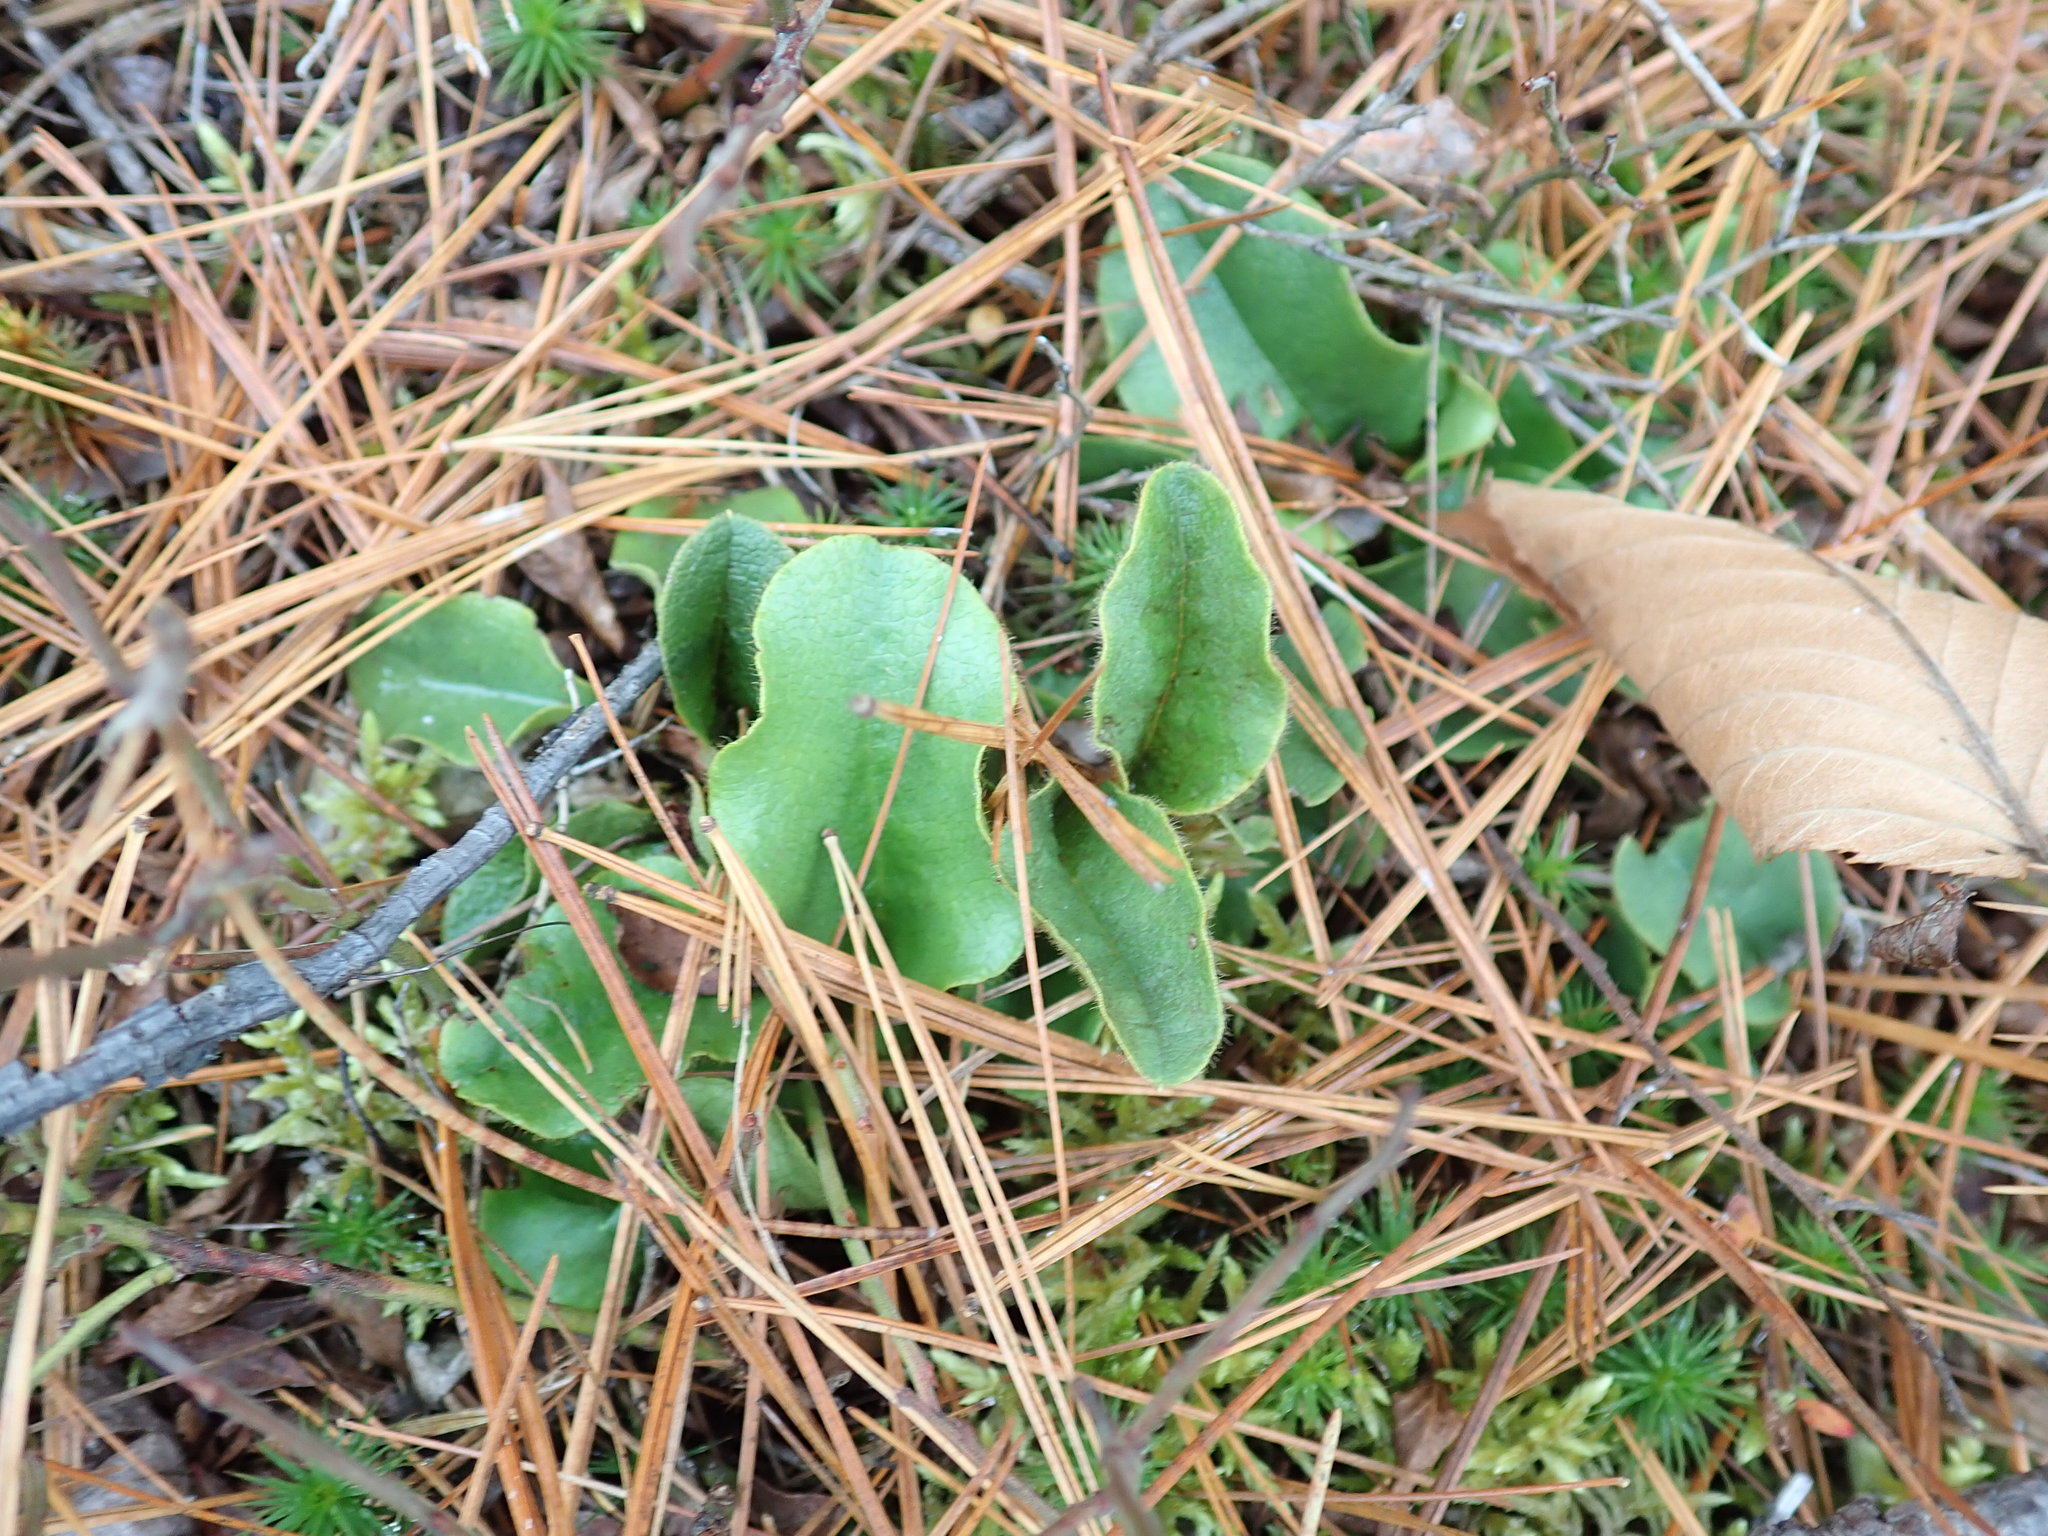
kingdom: Plantae
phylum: Tracheophyta
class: Magnoliopsida
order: Ericales
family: Ericaceae
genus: Epigaea
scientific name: Epigaea repens
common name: Gravelroot
